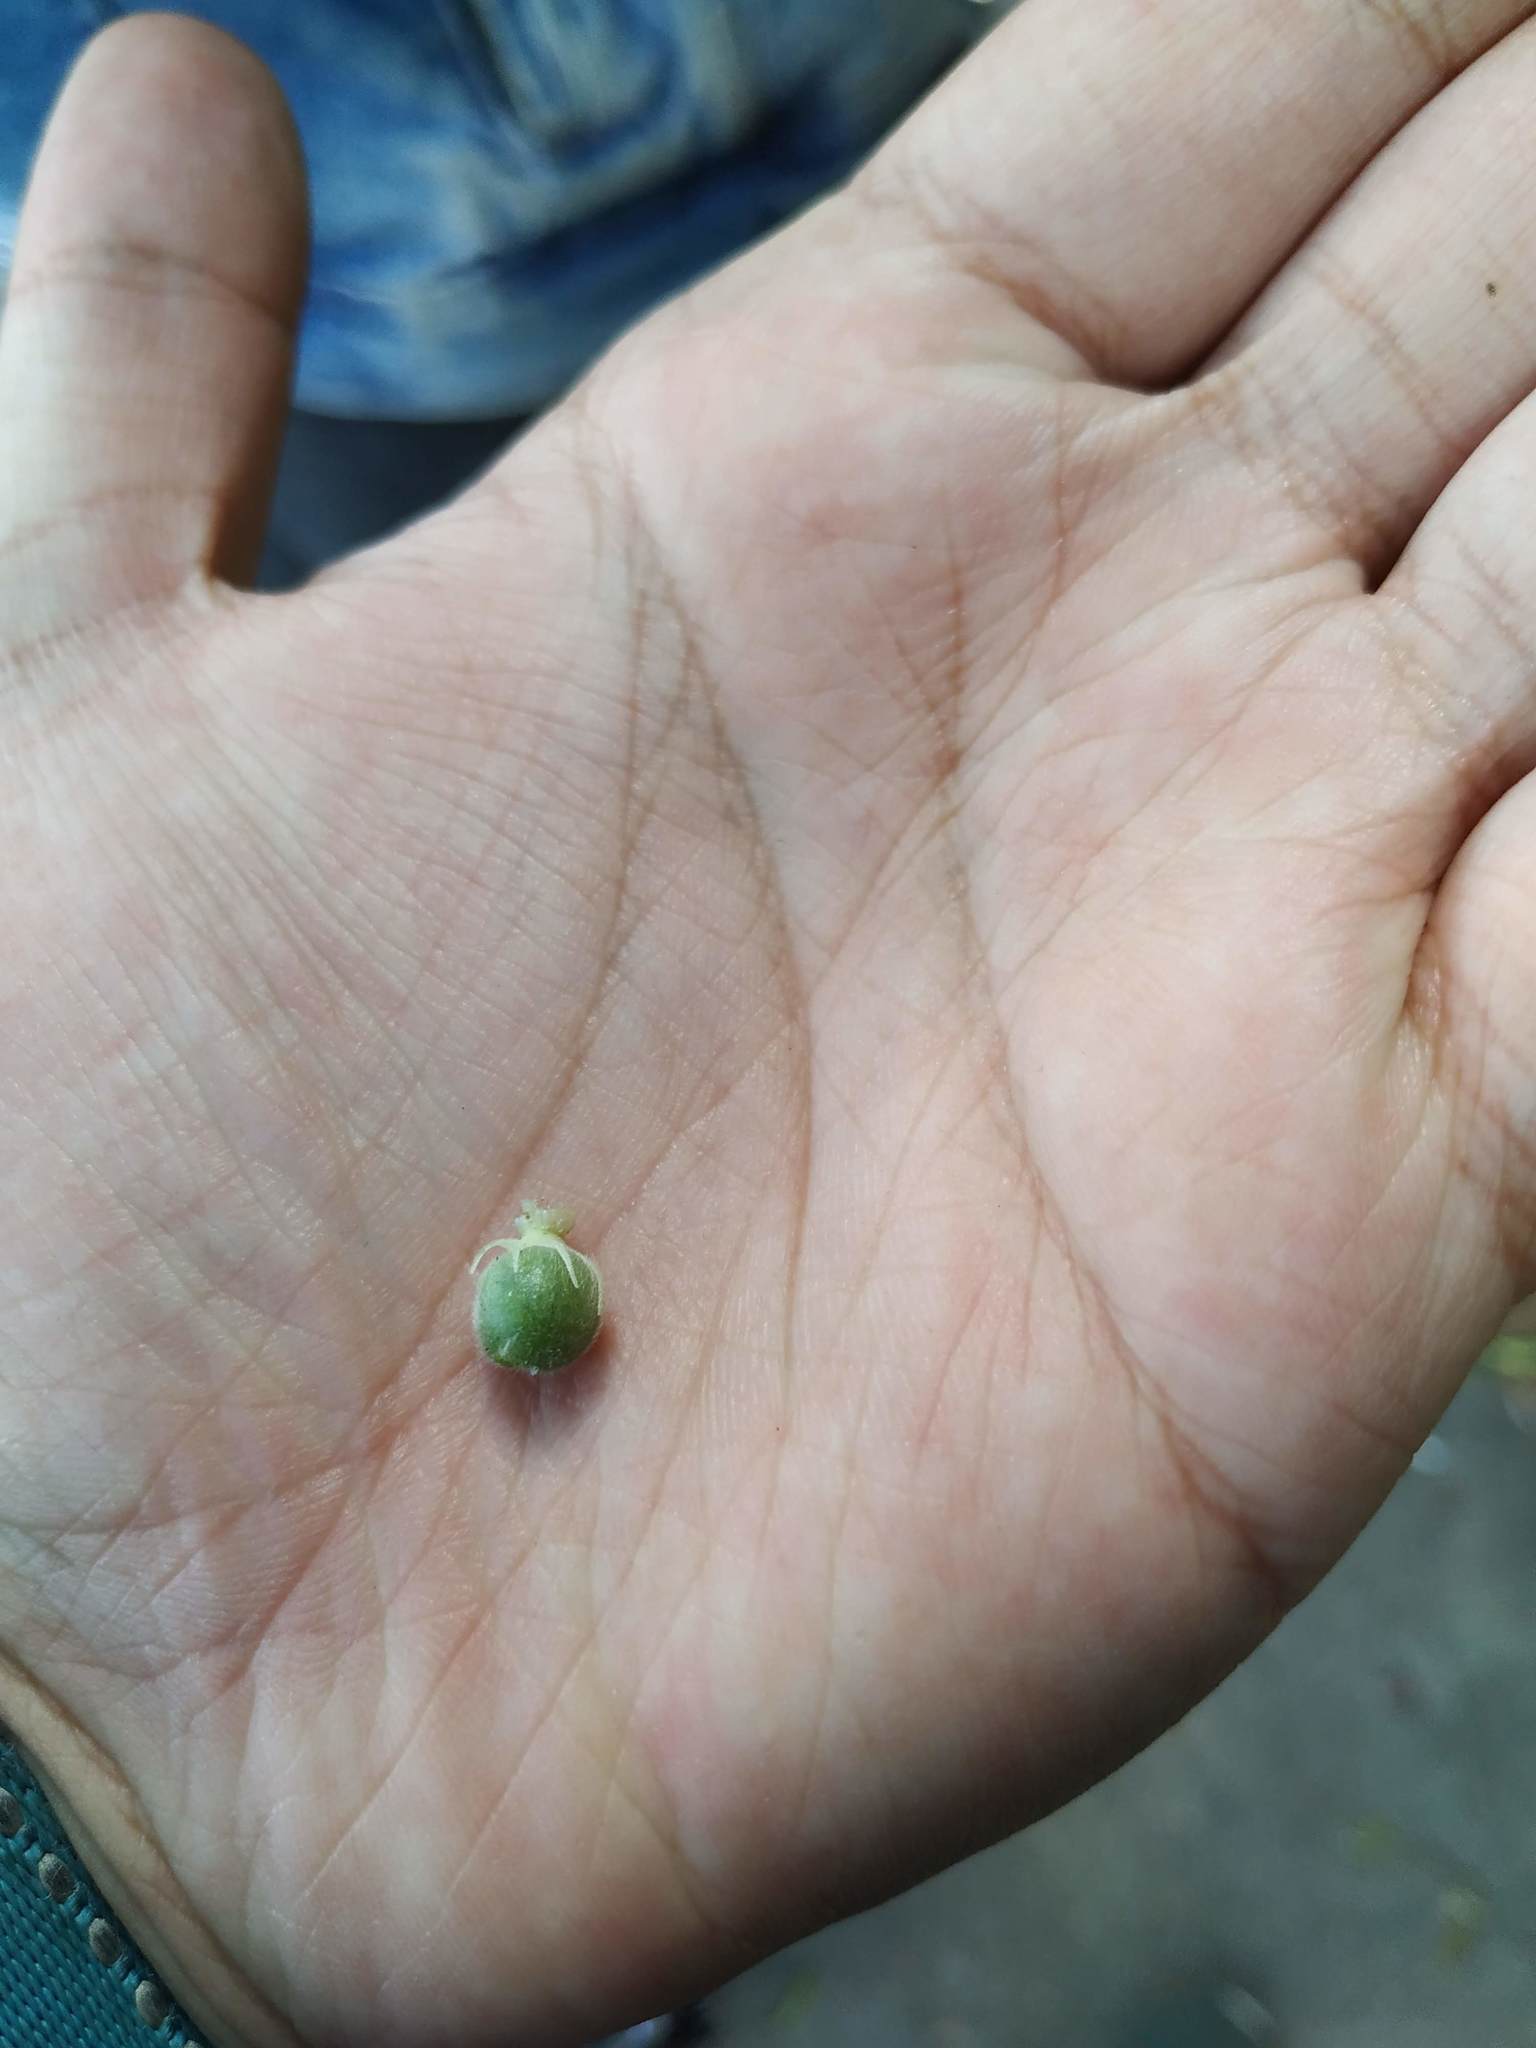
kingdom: Plantae
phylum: Tracheophyta
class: Magnoliopsida
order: Lamiales
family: Acanthaceae
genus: Thunbergia
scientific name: Thunbergia alata
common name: Blackeyed susan vine
